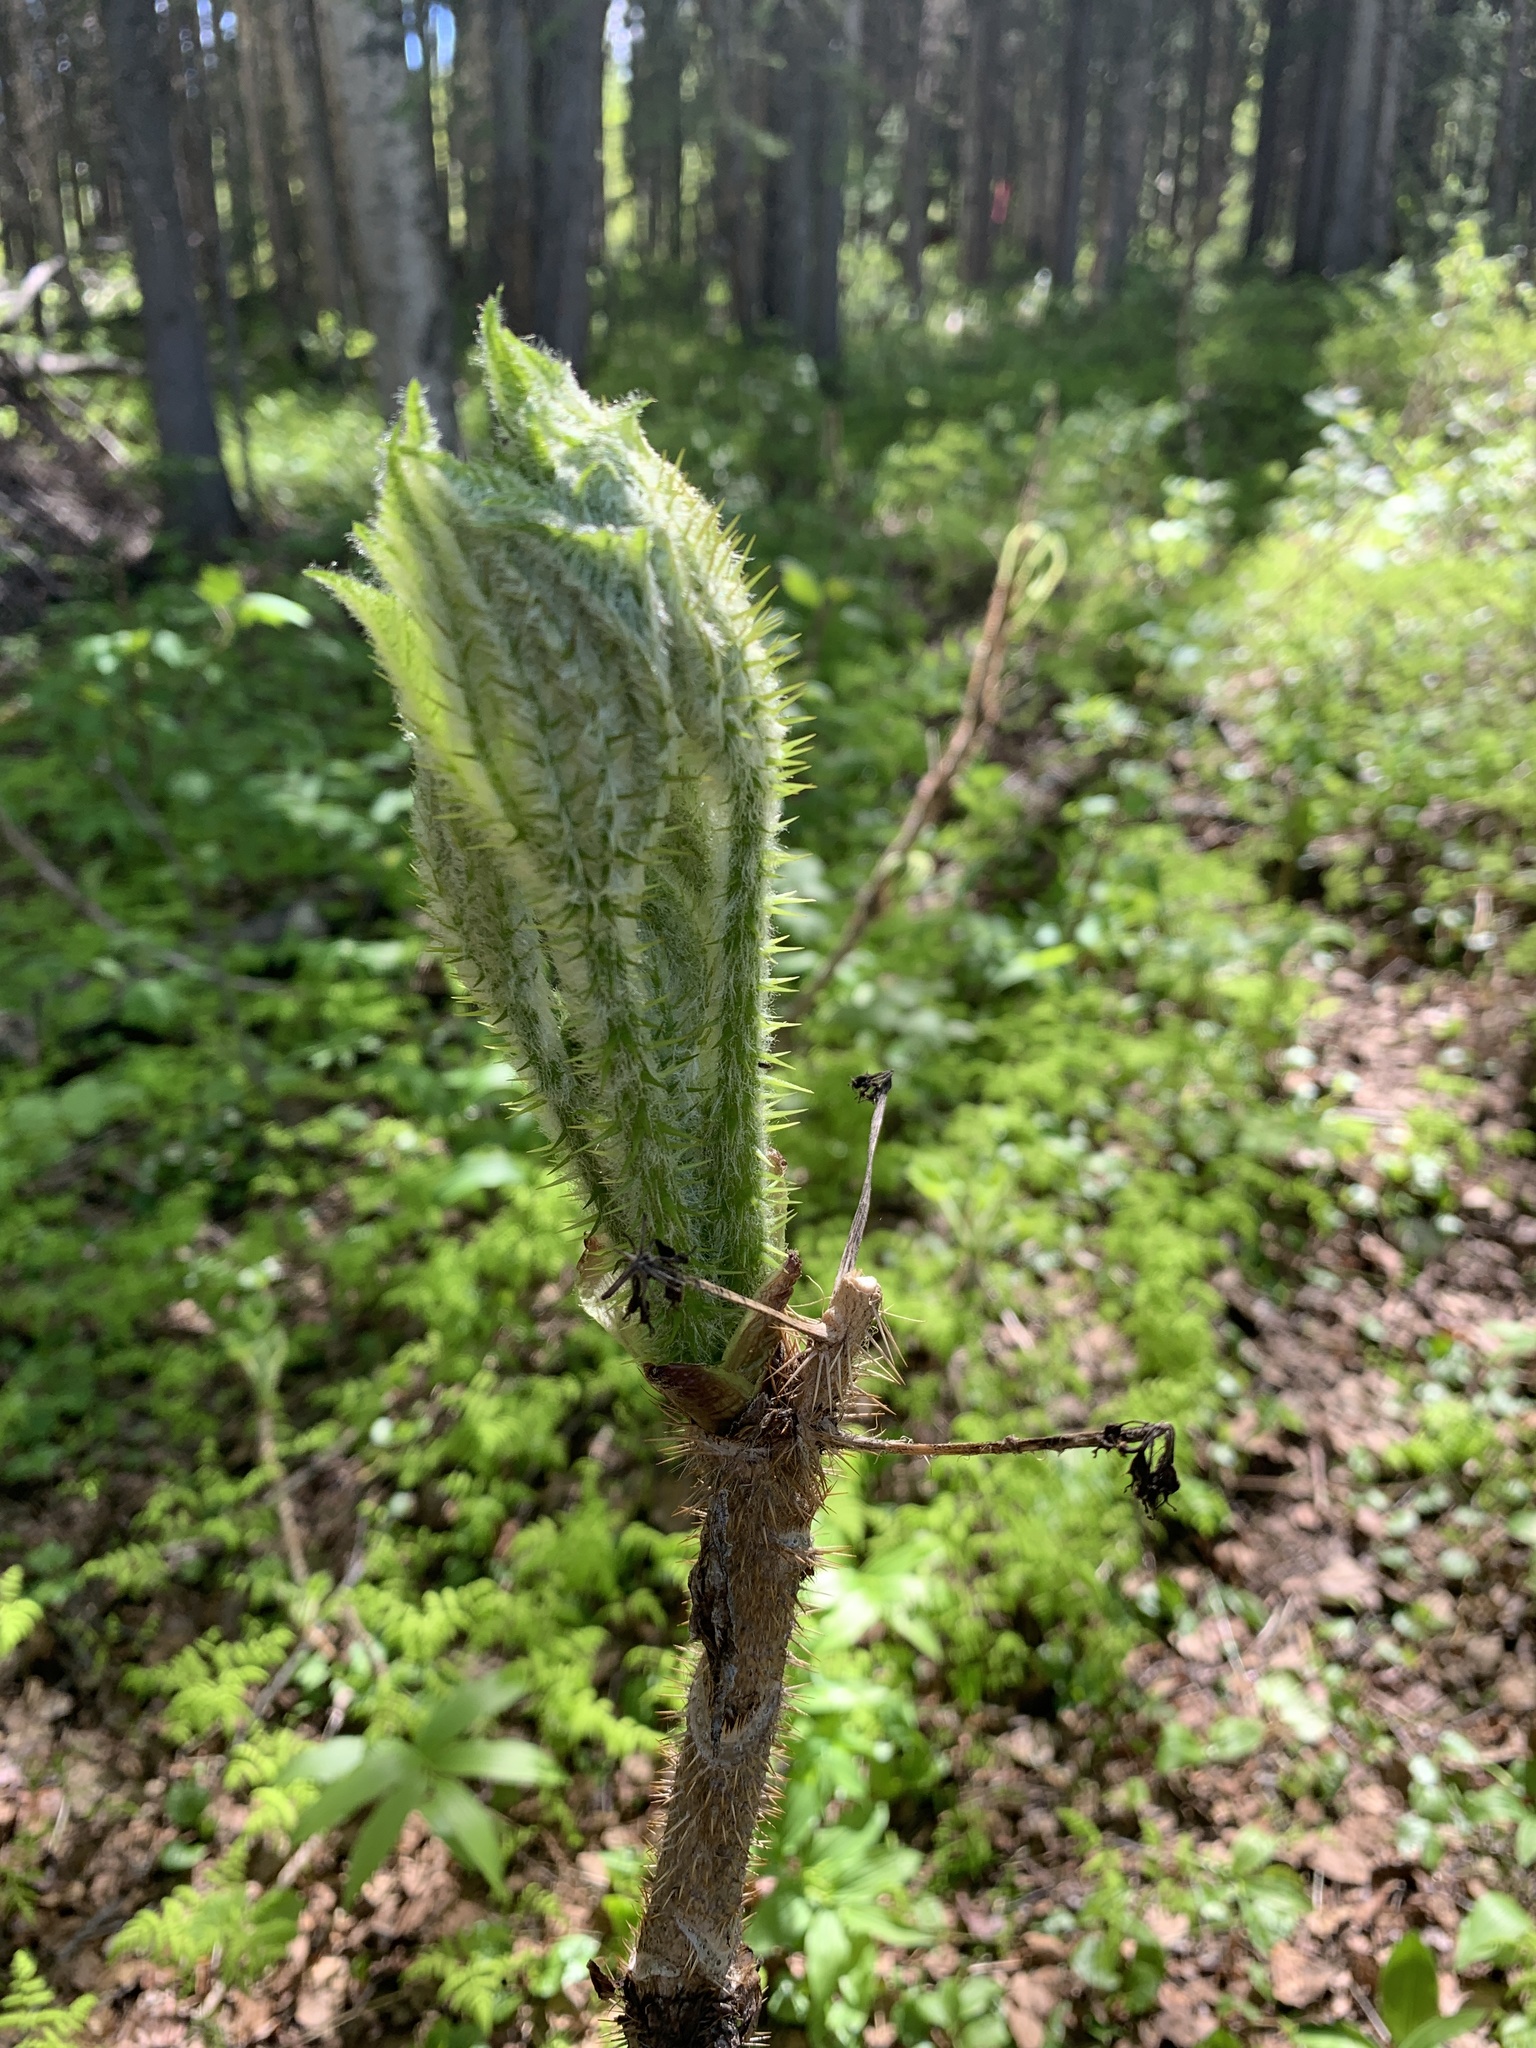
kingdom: Plantae
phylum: Tracheophyta
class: Magnoliopsida
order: Apiales
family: Araliaceae
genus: Oplopanax
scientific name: Oplopanax horridus
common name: Devil's walking-stick
